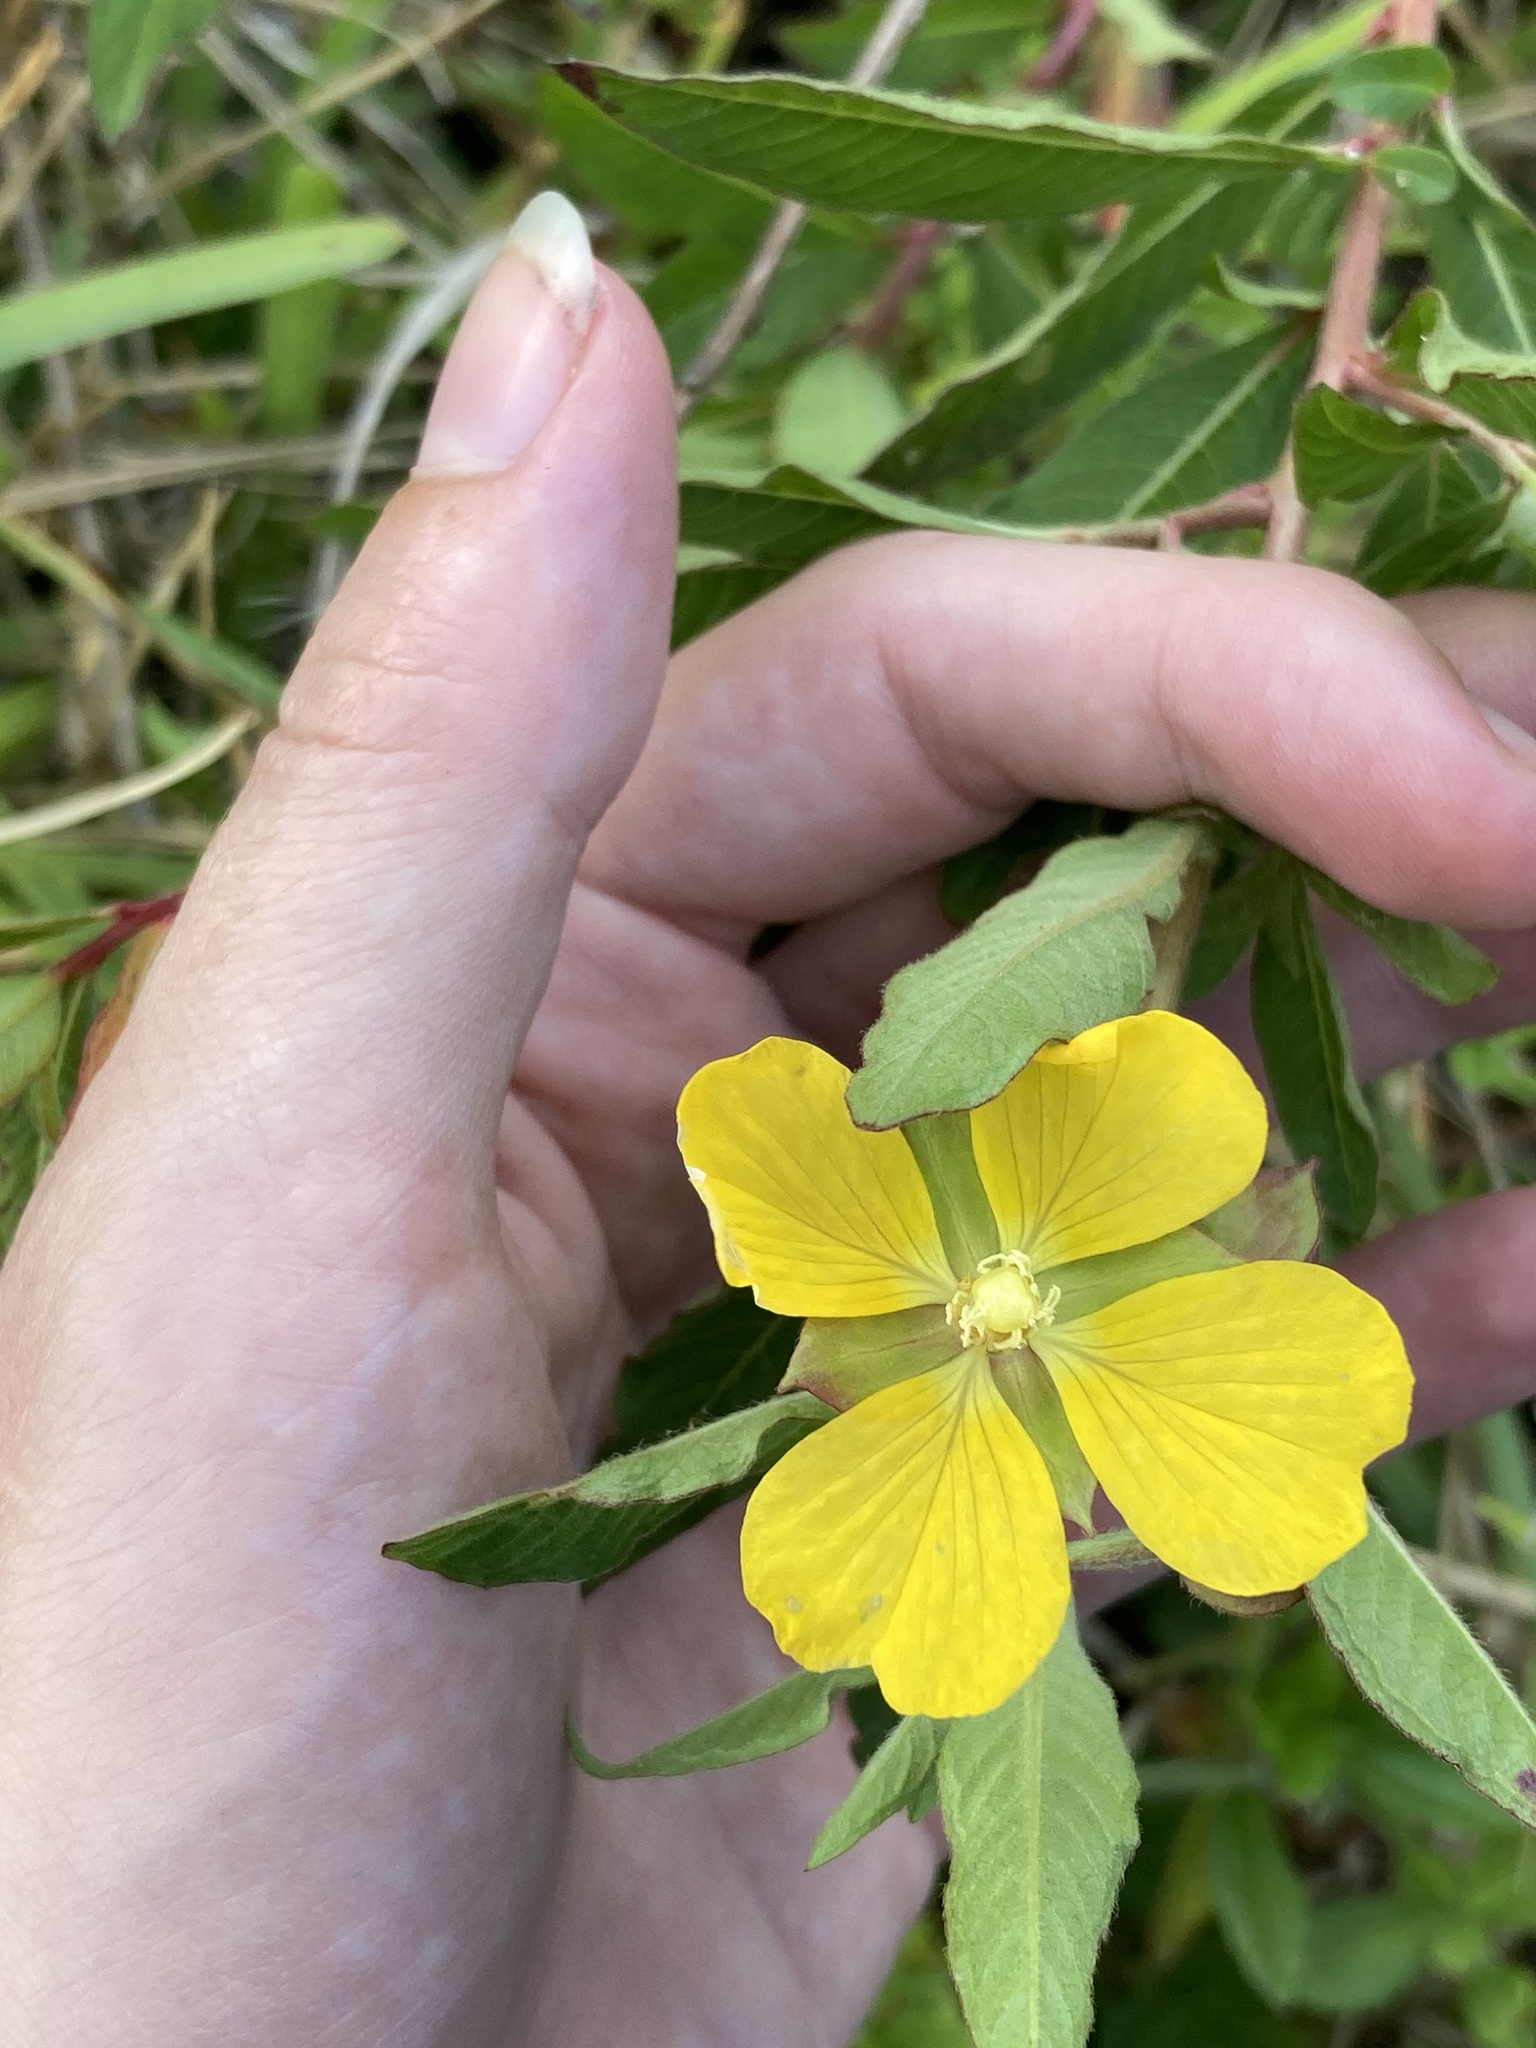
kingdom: Plantae
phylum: Tracheophyta
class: Magnoliopsida
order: Myrtales
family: Onagraceae
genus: Ludwigia
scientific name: Ludwigia octovalvis
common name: Water-primrose
